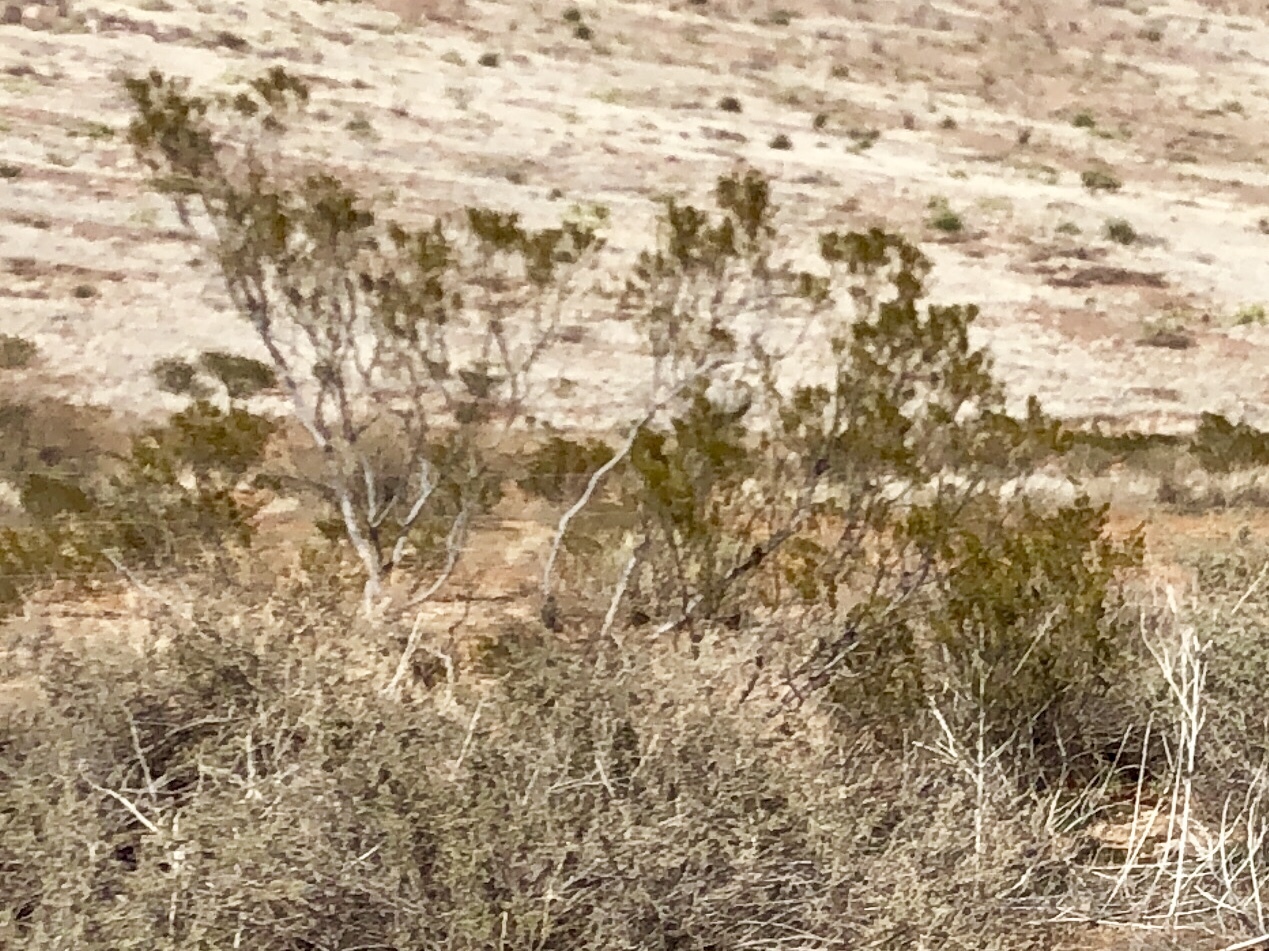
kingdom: Plantae
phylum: Tracheophyta
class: Magnoliopsida
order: Zygophyllales
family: Zygophyllaceae
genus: Larrea
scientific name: Larrea tridentata
